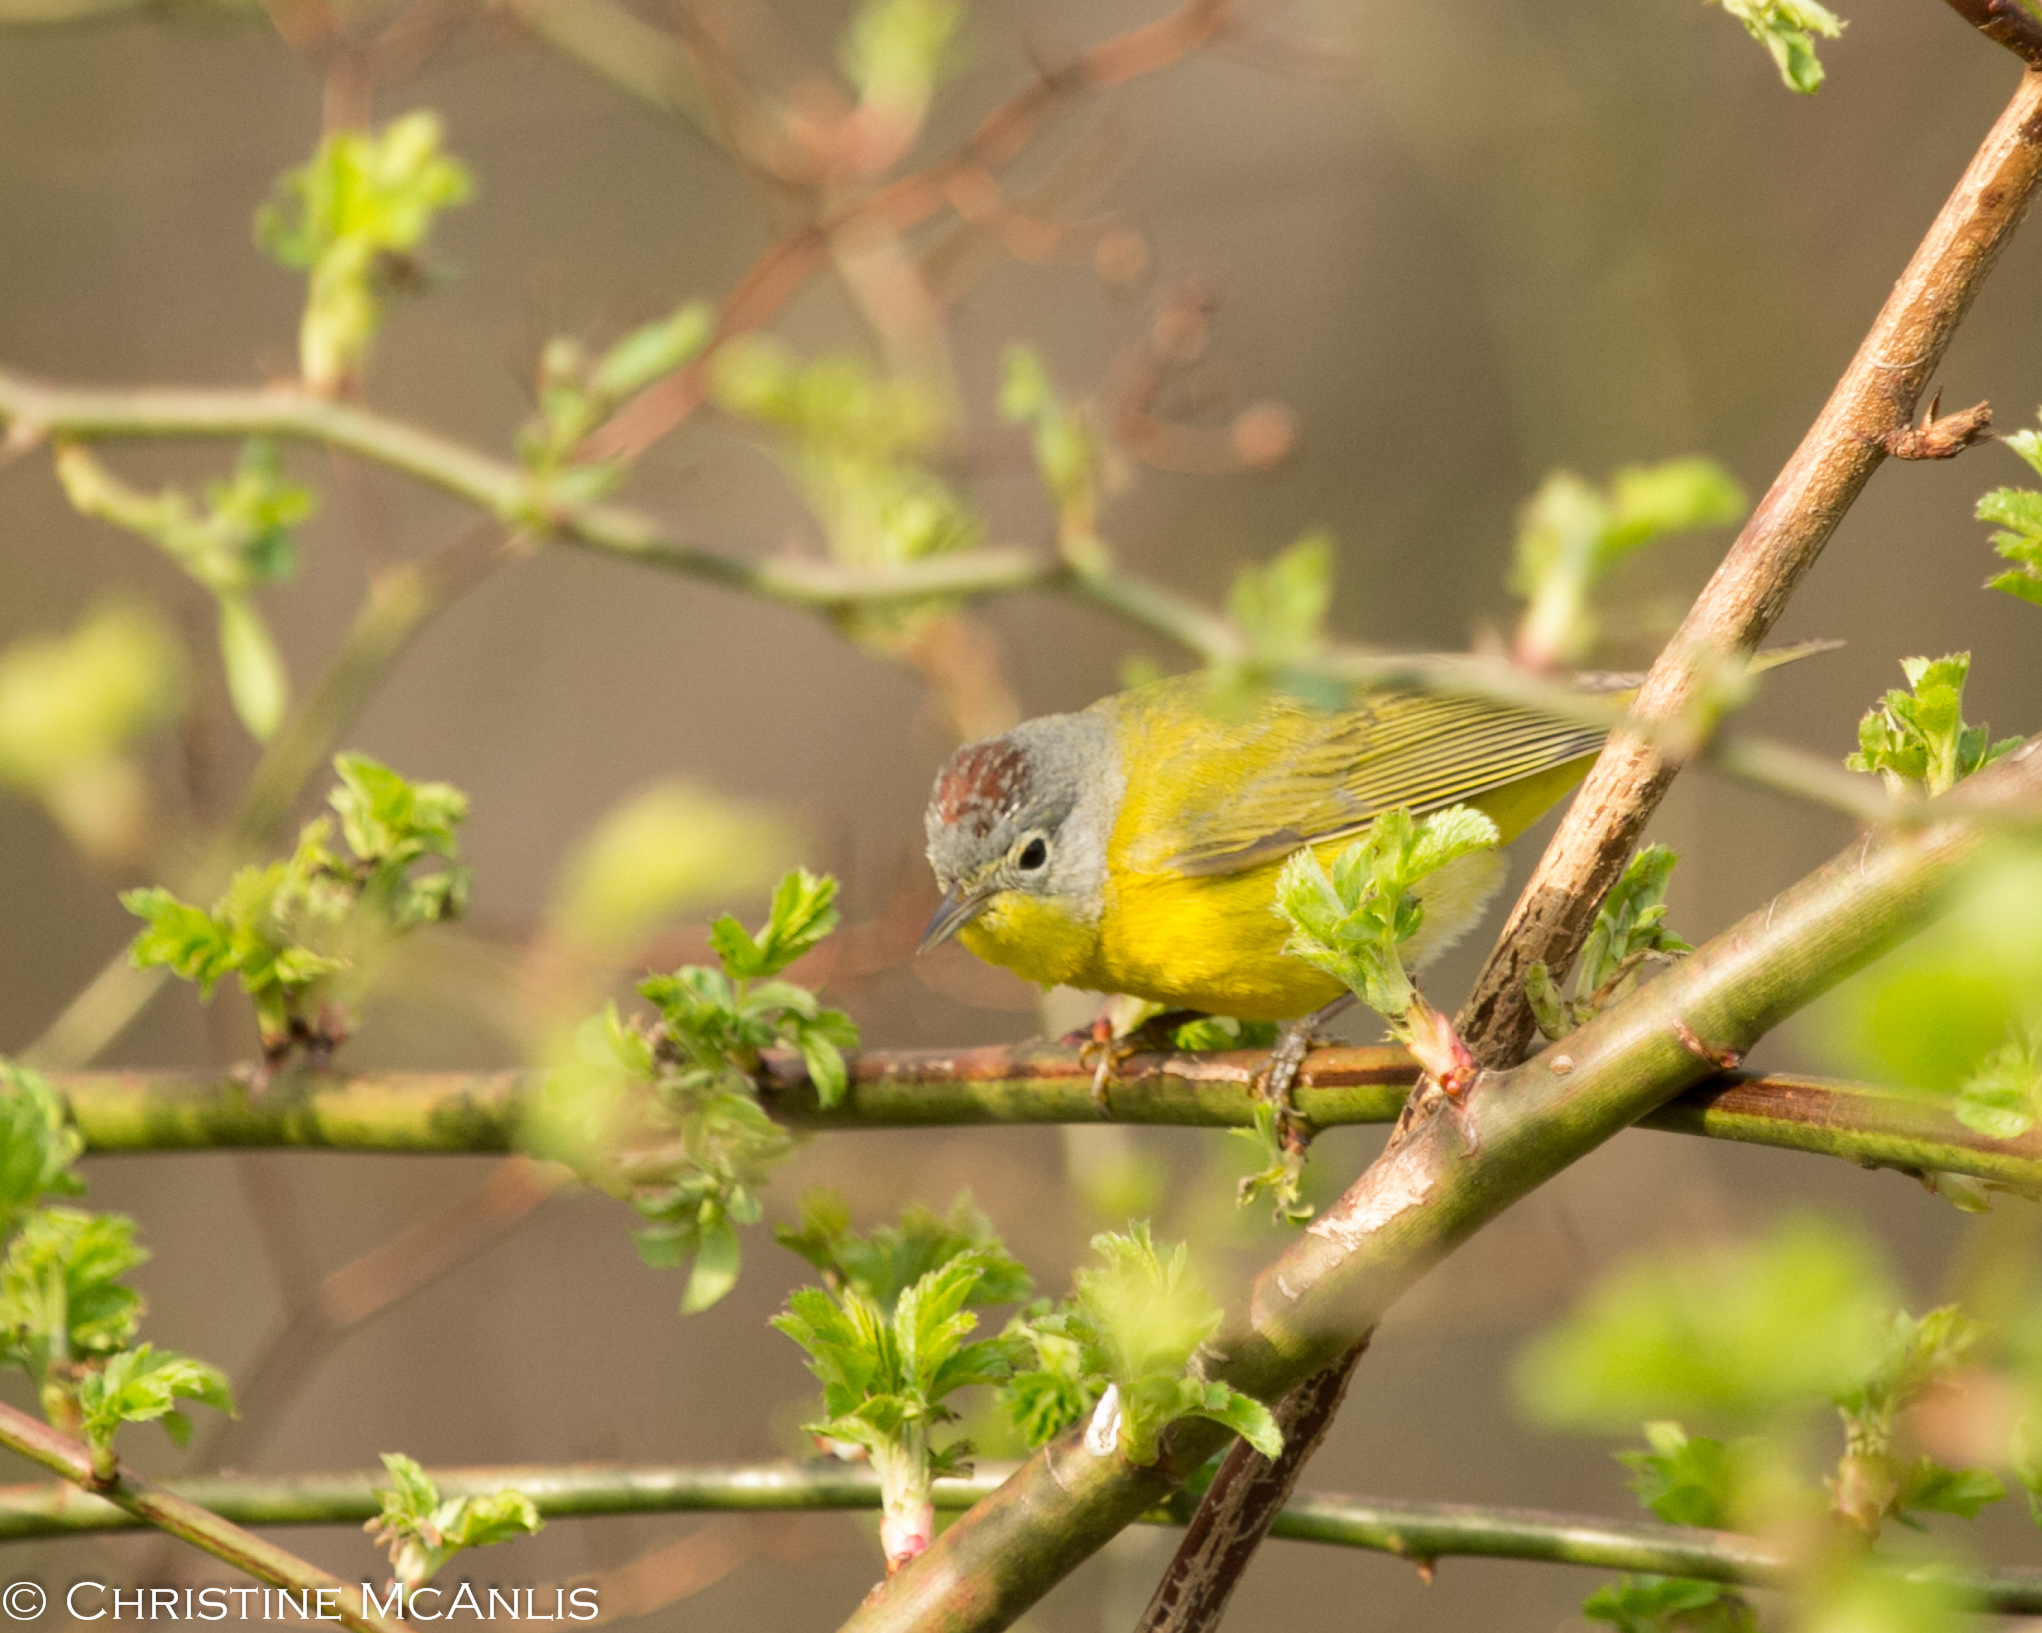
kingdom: Animalia
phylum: Chordata
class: Aves
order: Passeriformes
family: Parulidae
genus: Leiothlypis
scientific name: Leiothlypis ruficapilla
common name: Nashville warbler
